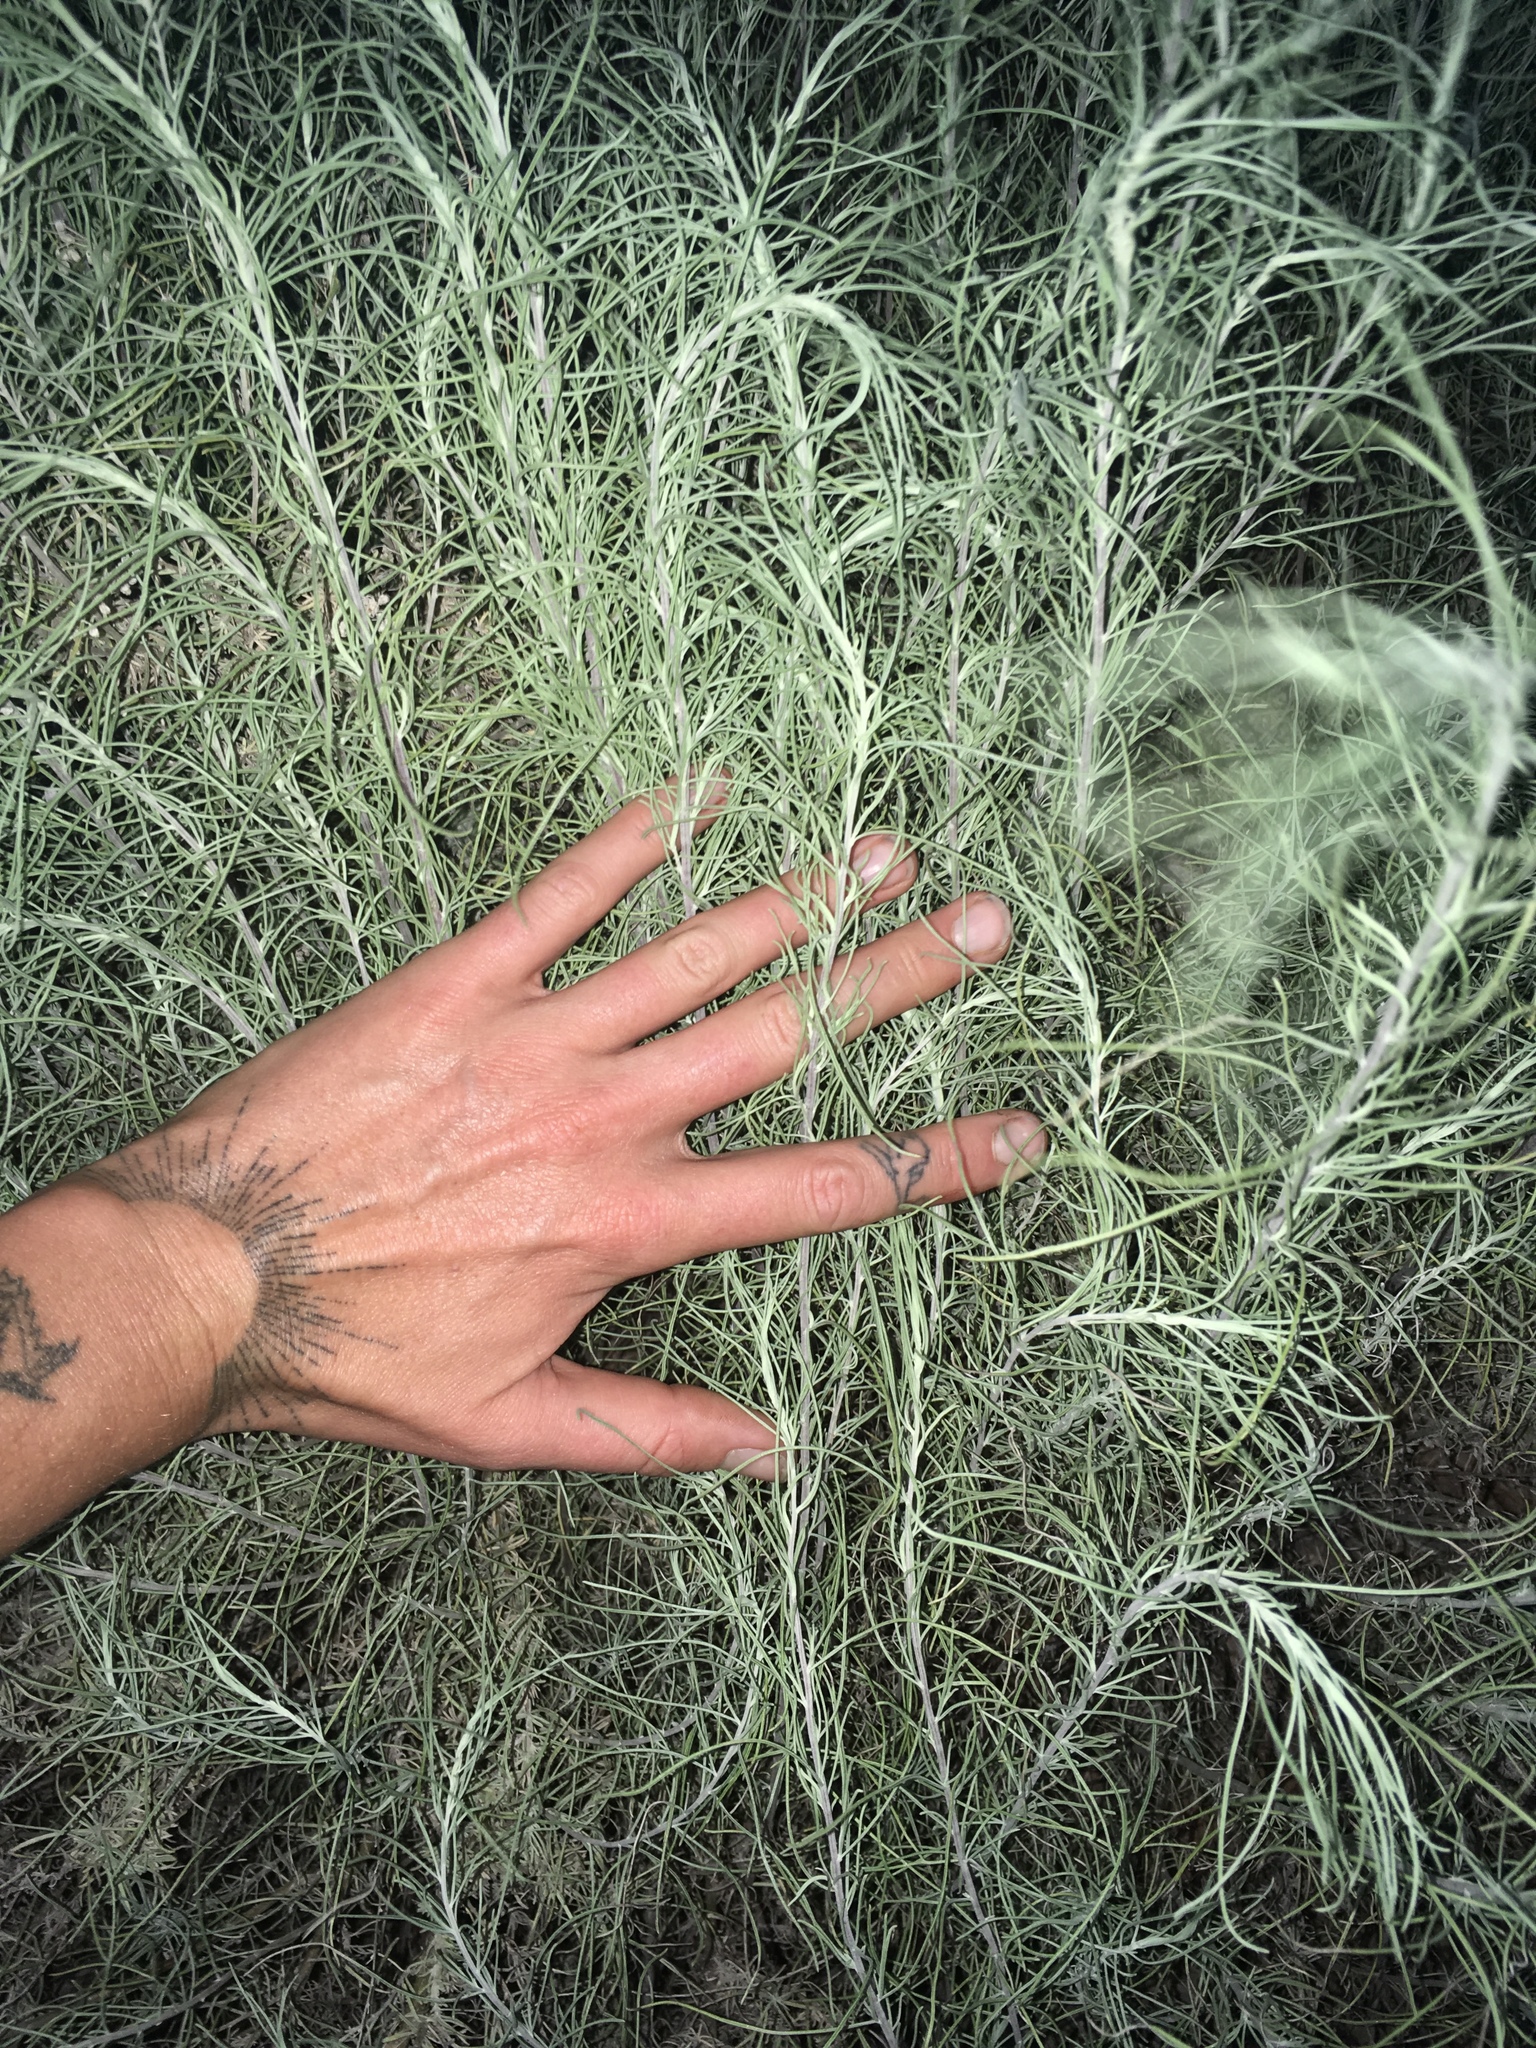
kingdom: Plantae
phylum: Tracheophyta
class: Magnoliopsida
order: Asterales
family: Asteraceae
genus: Artemisia
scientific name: Artemisia filifolia
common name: Sand-sage
